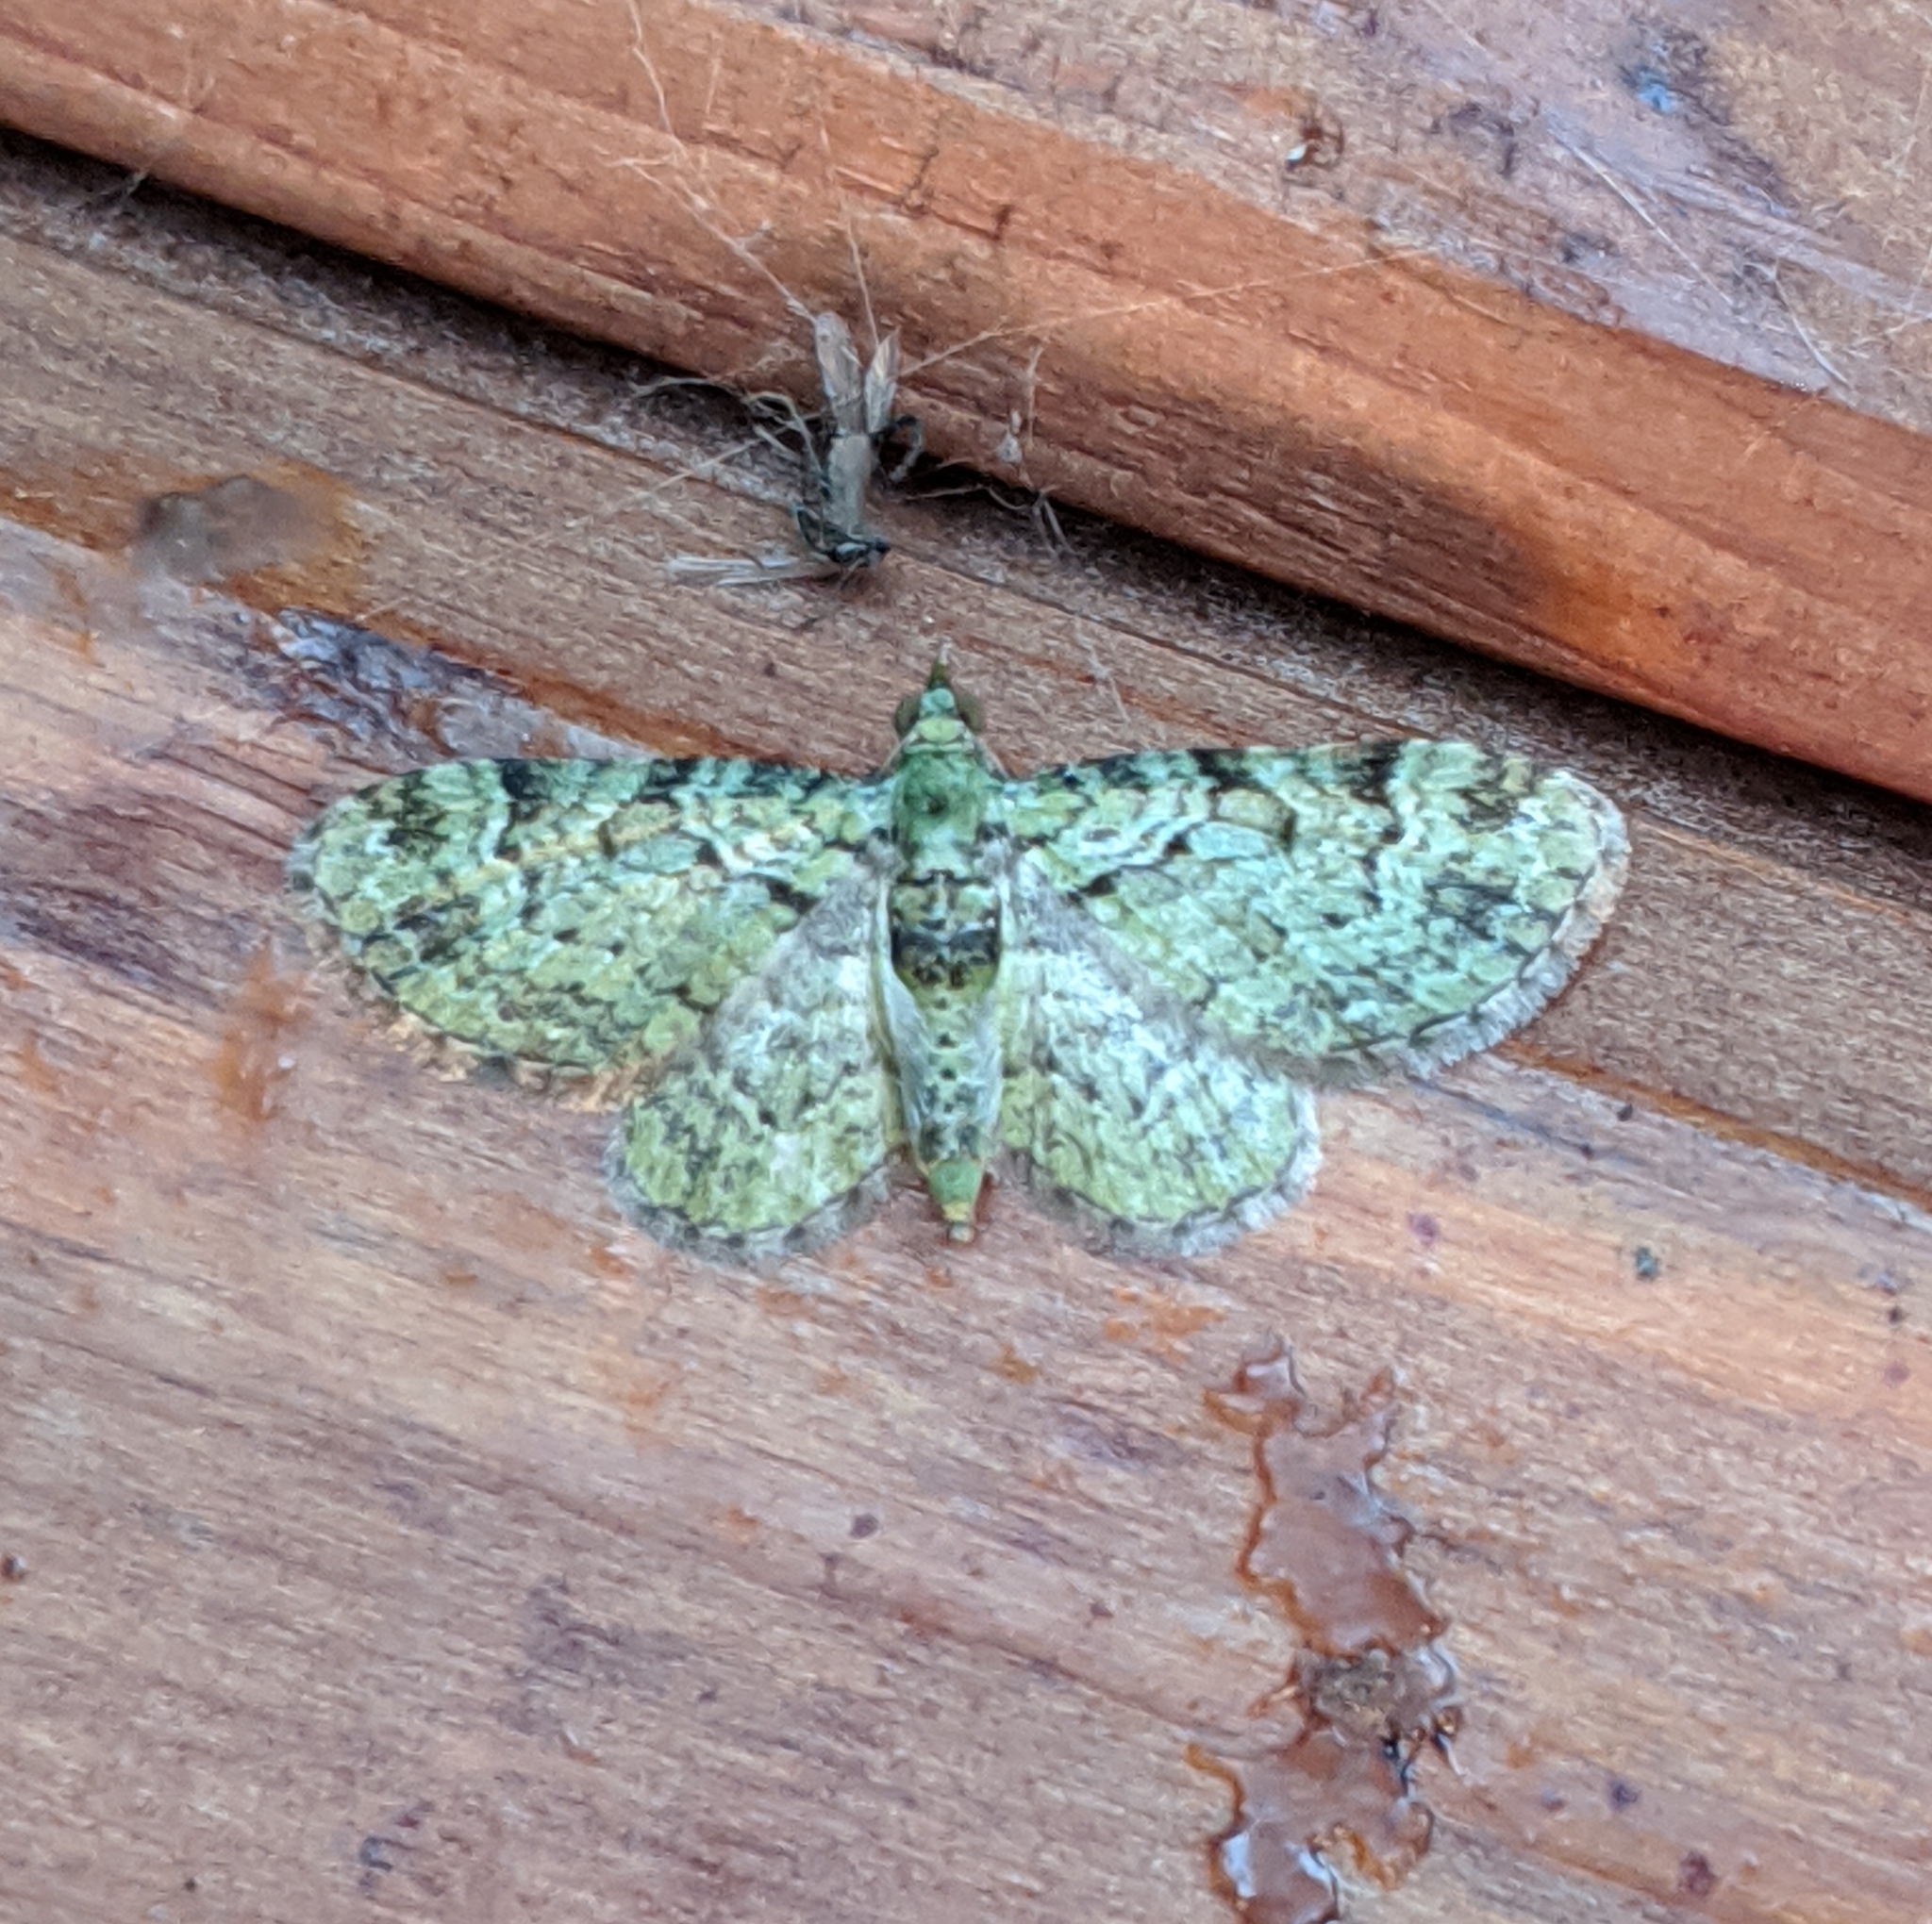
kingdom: Animalia
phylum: Arthropoda
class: Insecta
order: Lepidoptera
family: Geometridae
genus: Pasiphila
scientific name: Pasiphila rectangulata
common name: Green pug
